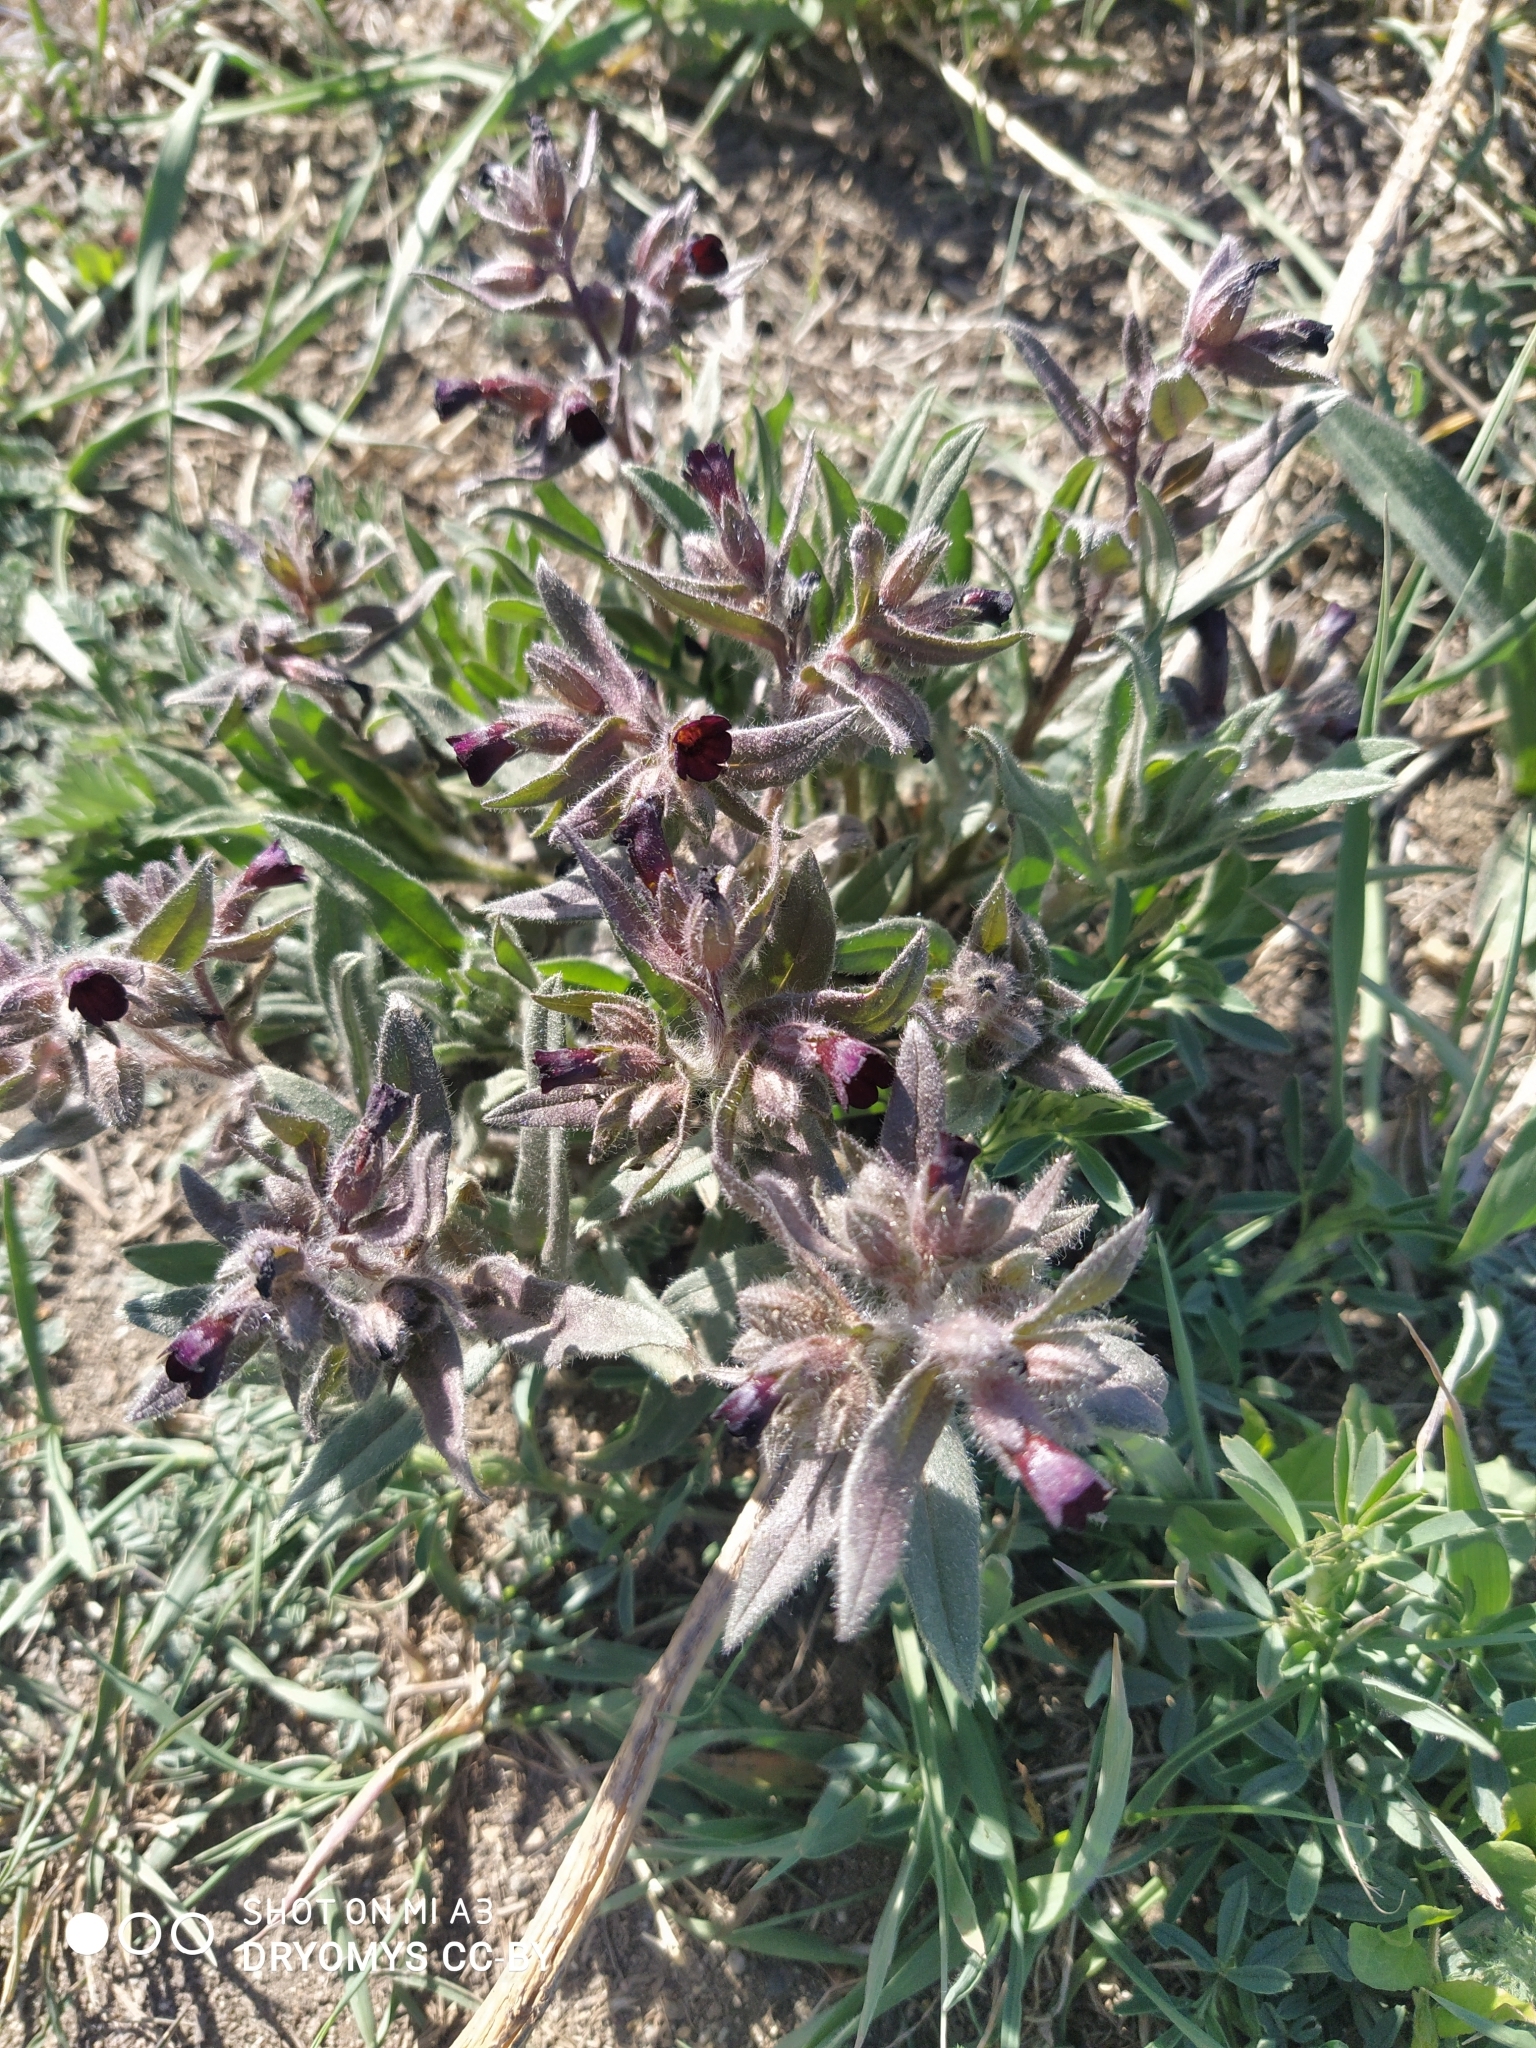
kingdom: Plantae
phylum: Tracheophyta
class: Magnoliopsida
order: Boraginales
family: Boraginaceae
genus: Nonea
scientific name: Nonea pulla
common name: Brown nonea
